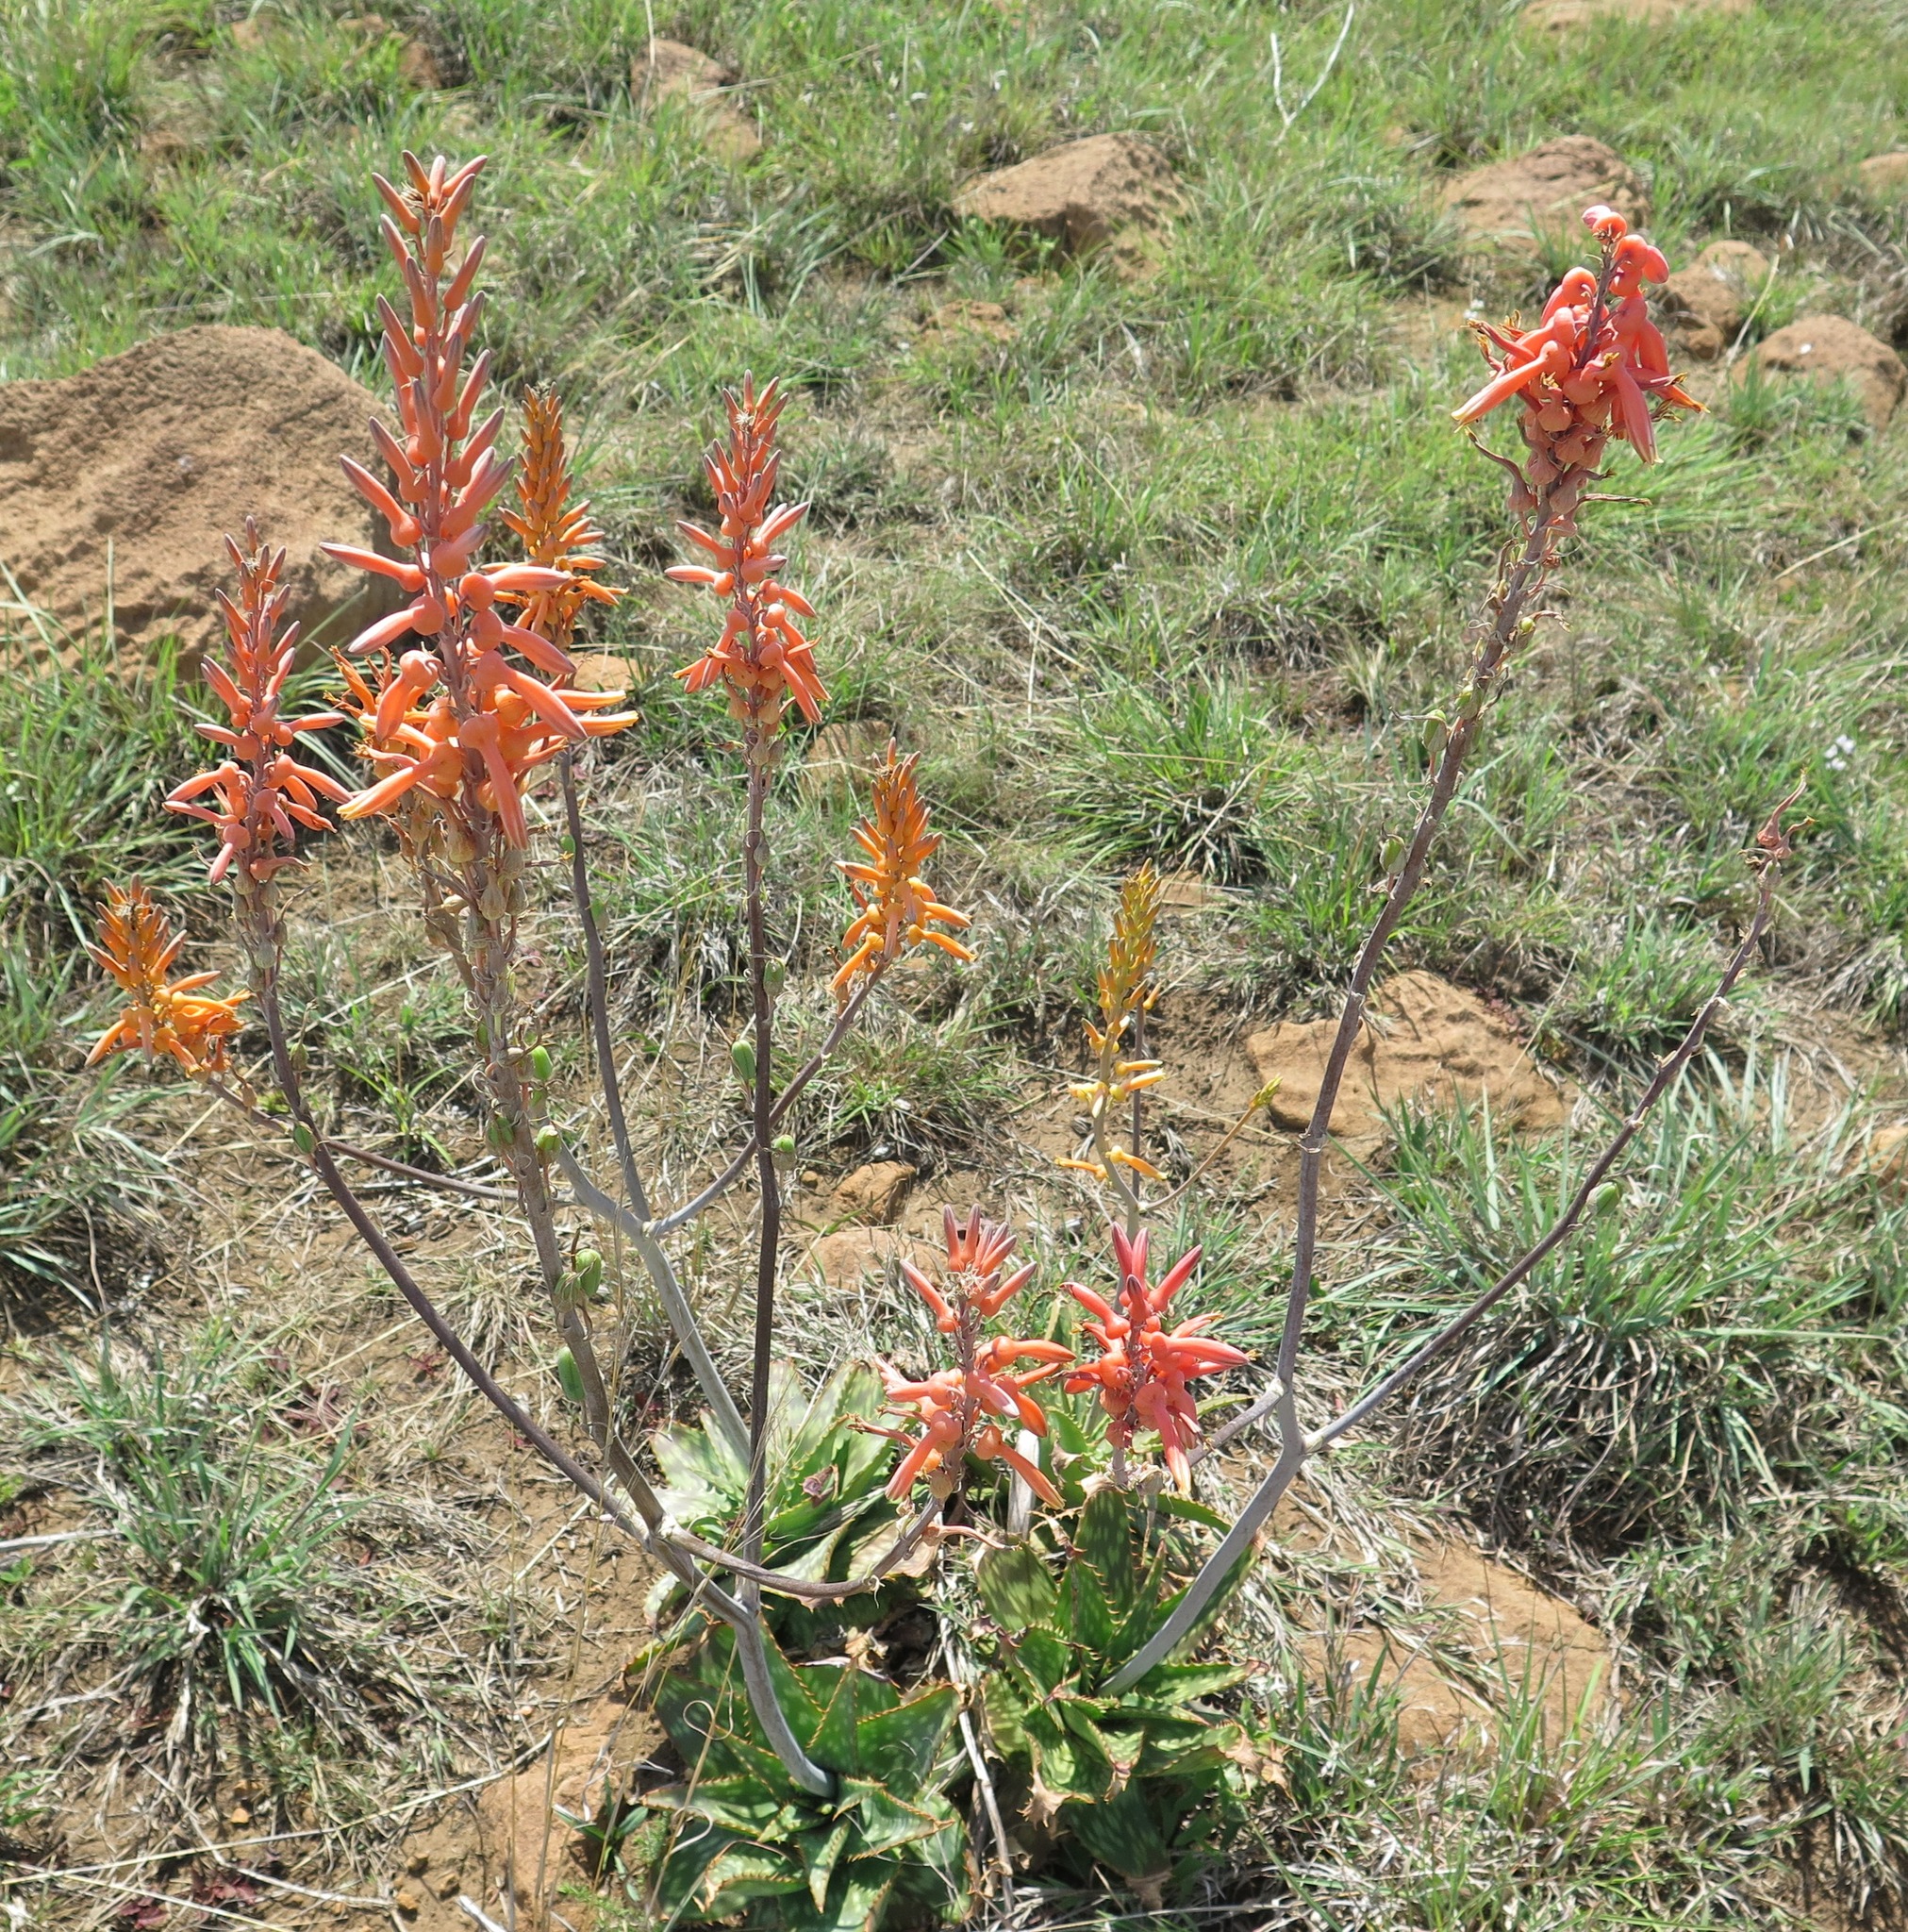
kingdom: Plantae
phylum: Tracheophyta
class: Liliopsida
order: Asparagales
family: Asphodelaceae
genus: Aloe
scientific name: Aloe vanrooyenii
